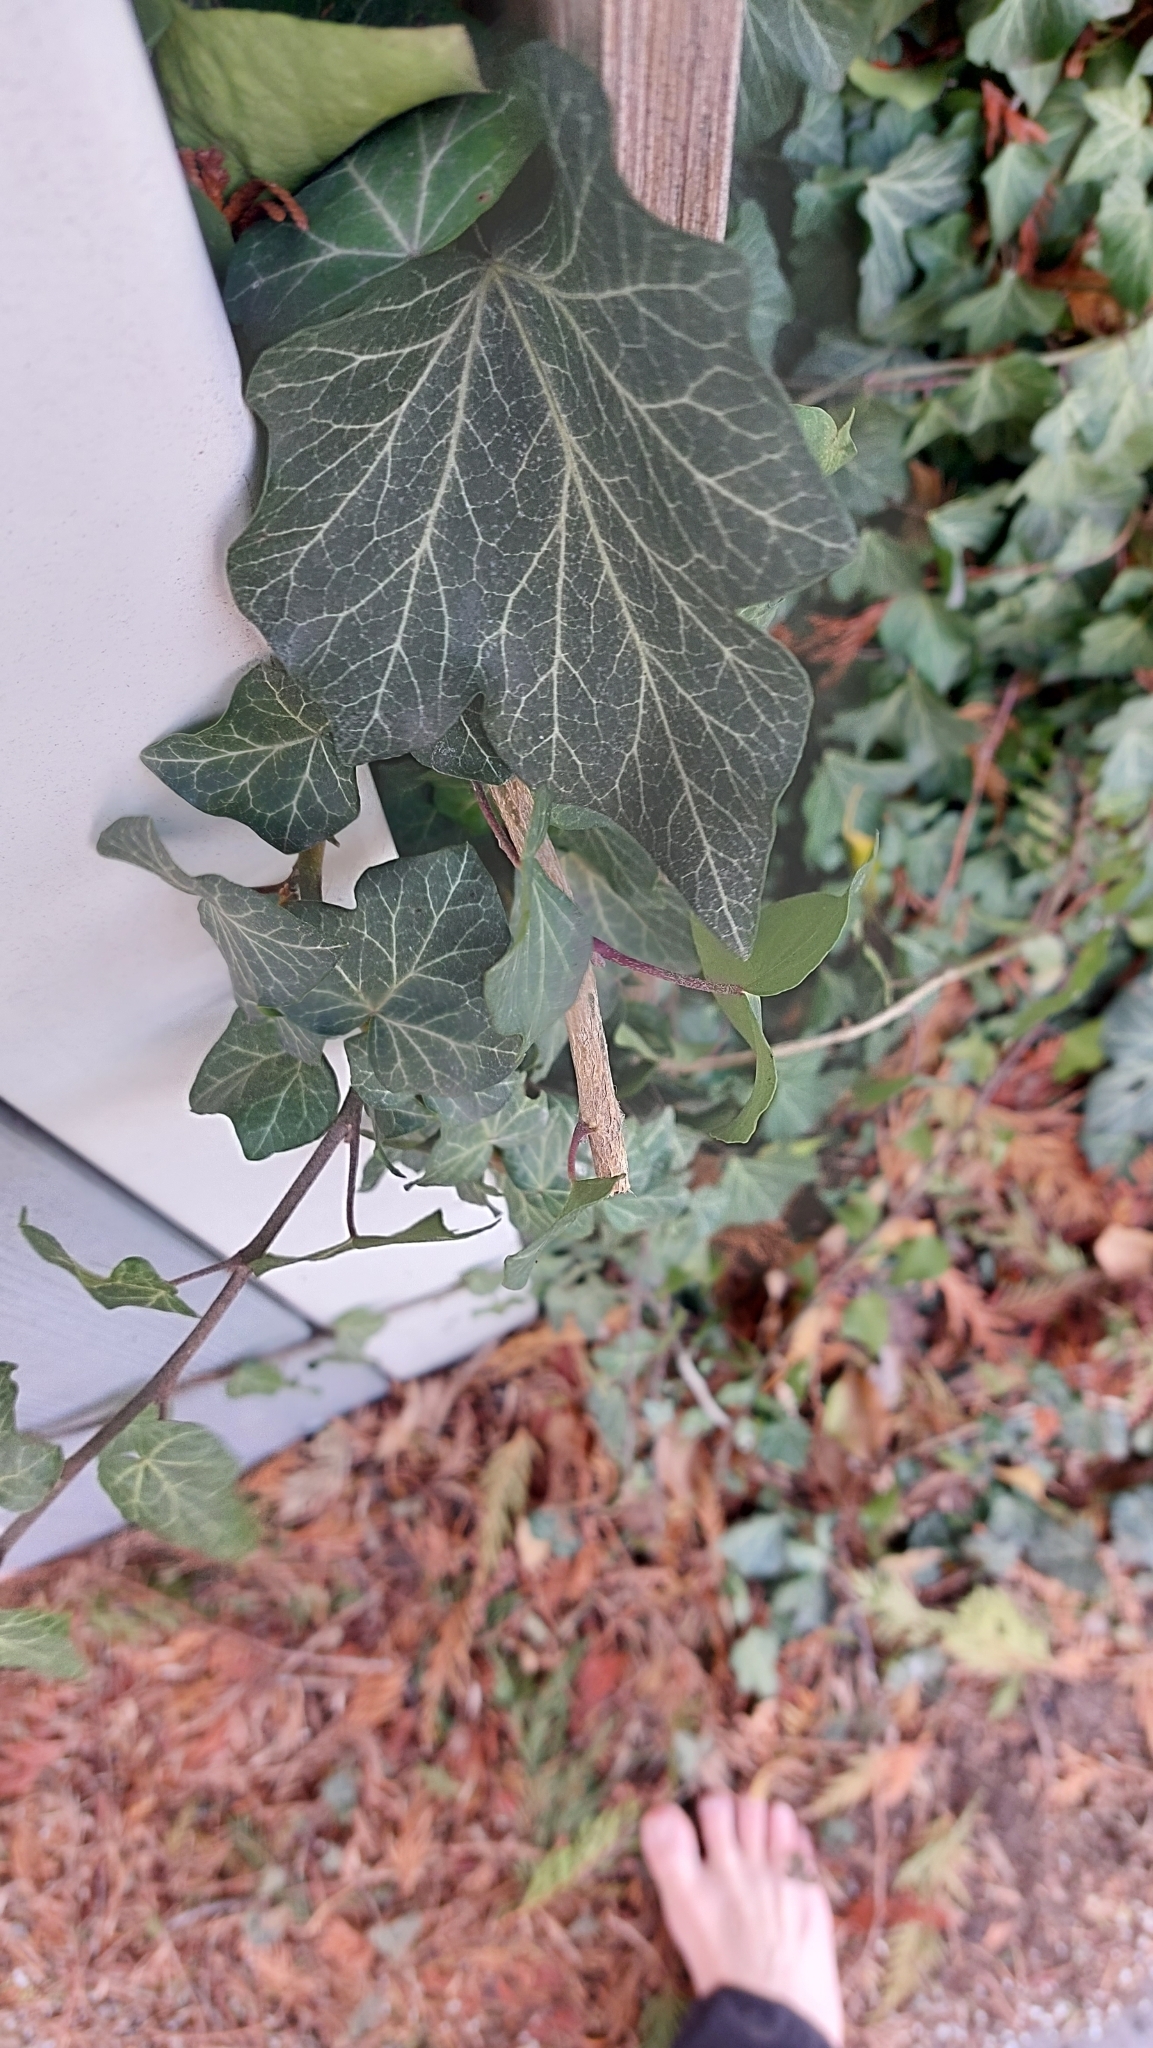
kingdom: Plantae
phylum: Tracheophyta
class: Magnoliopsida
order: Apiales
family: Araliaceae
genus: Hedera
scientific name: Hedera helix
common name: Ivy
